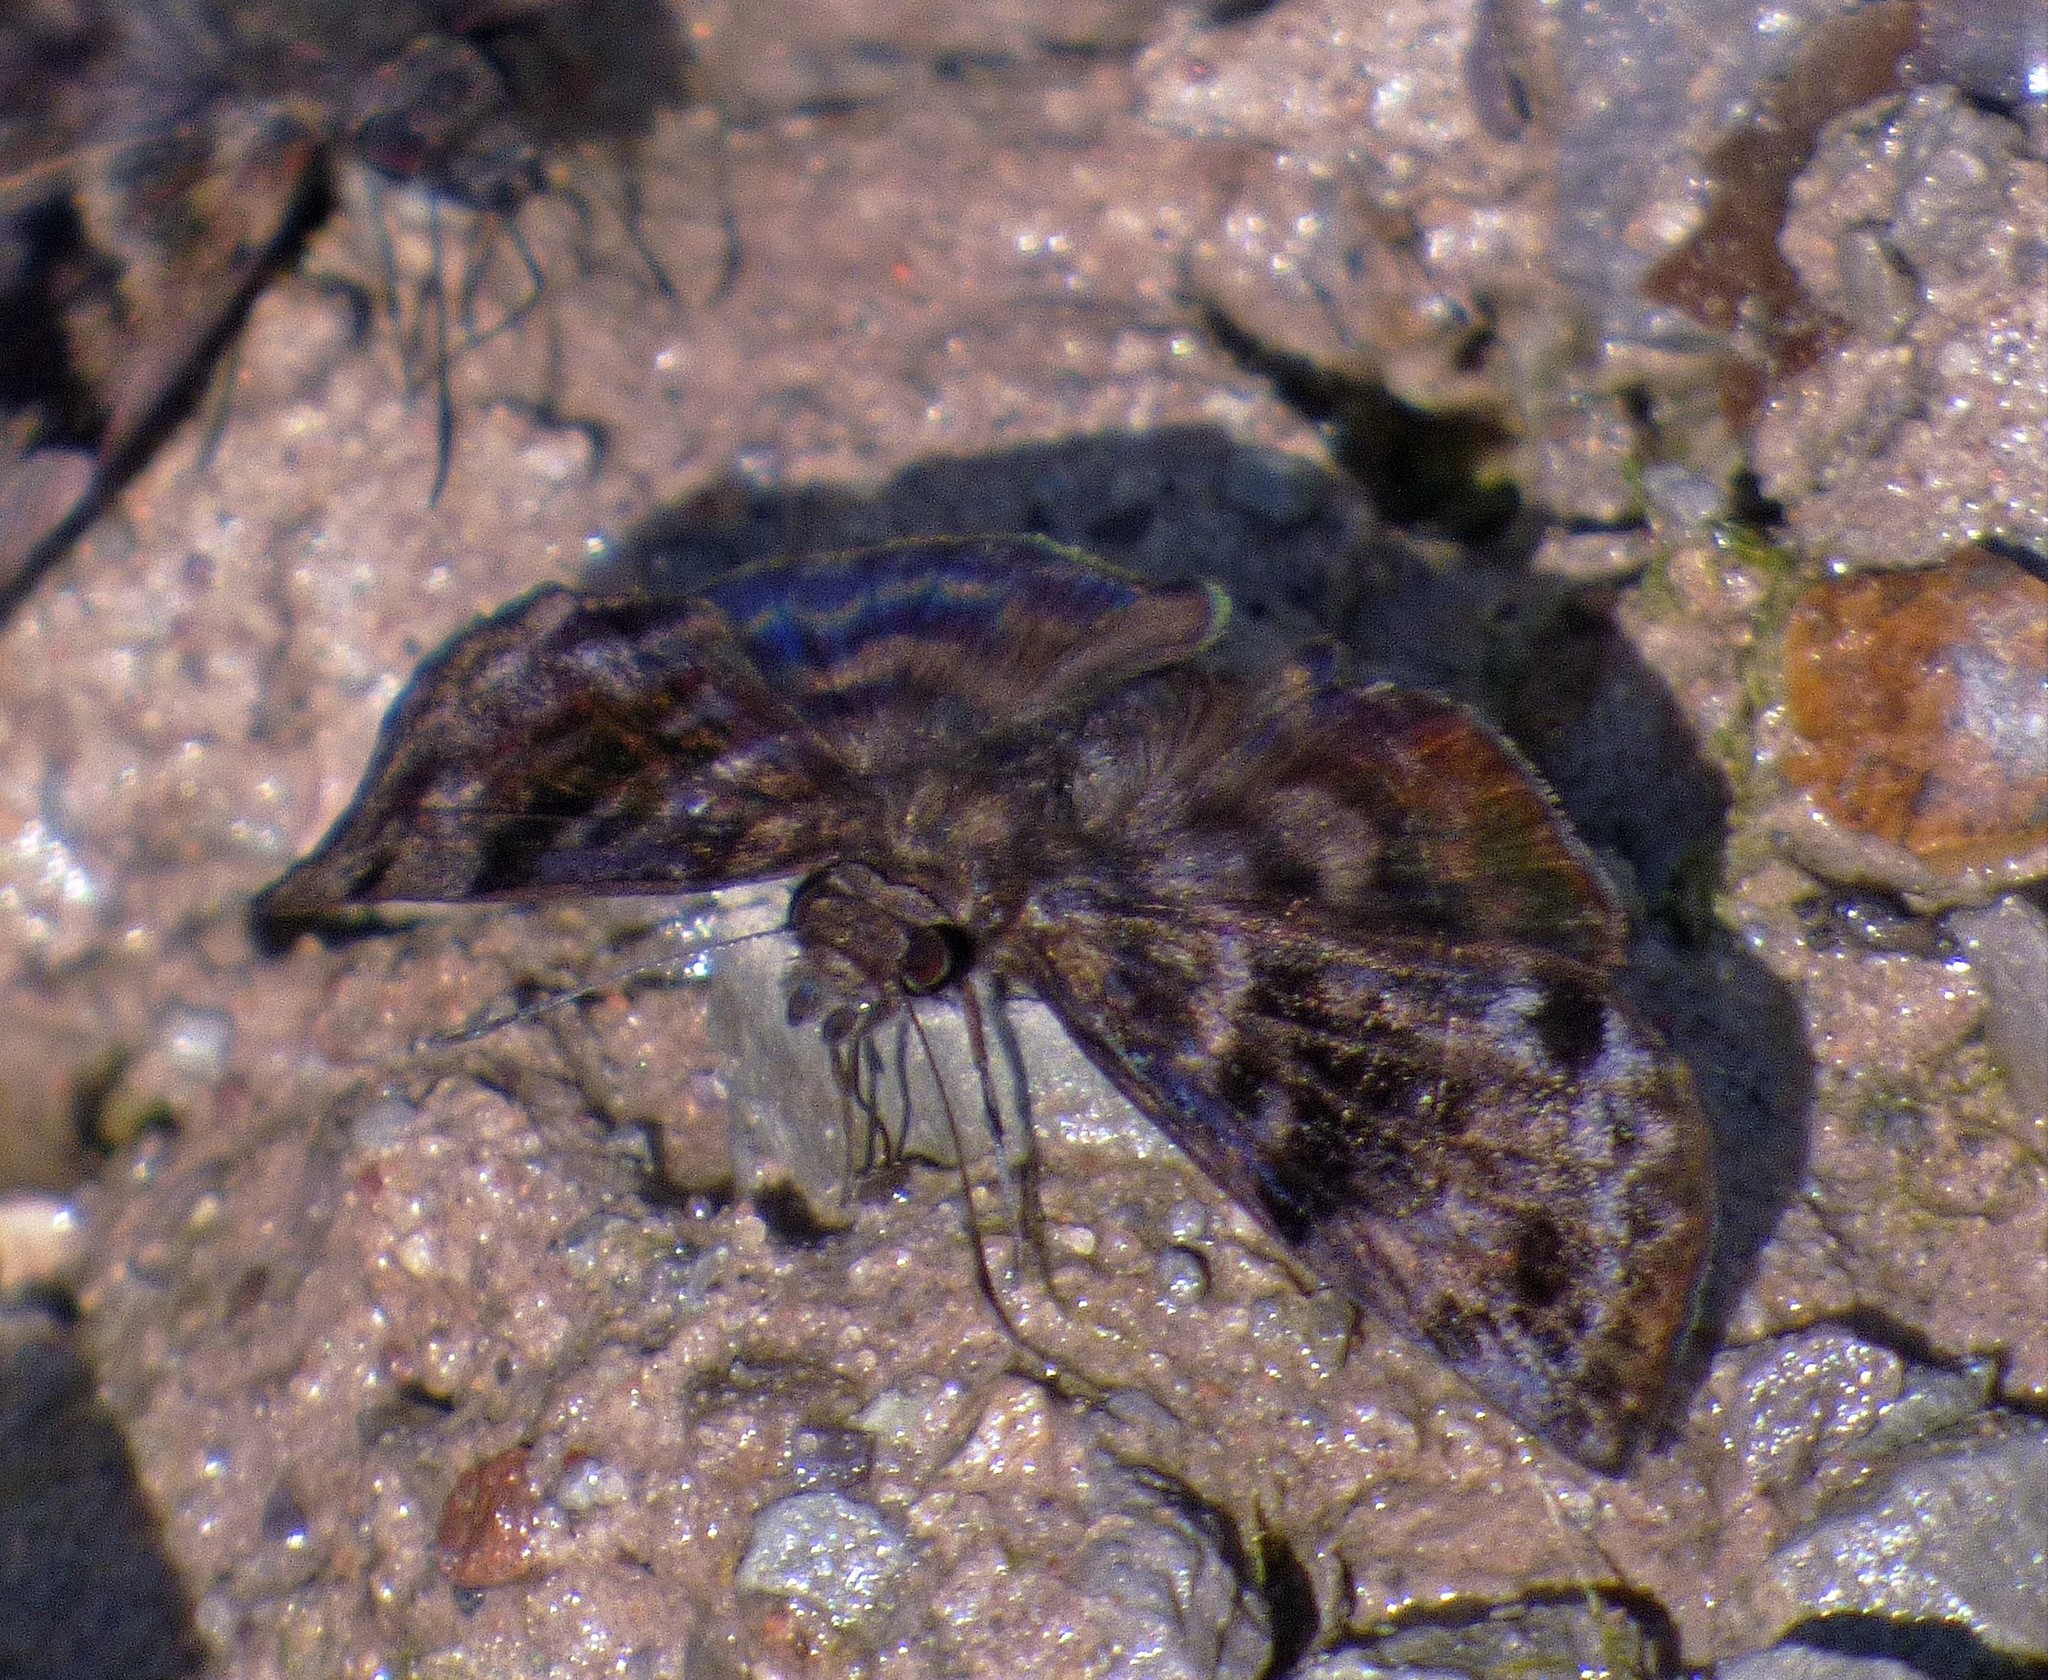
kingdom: Animalia
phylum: Arthropoda
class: Insecta
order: Lepidoptera
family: Hesperiidae
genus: Ebrietas
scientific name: Ebrietas anacreon
